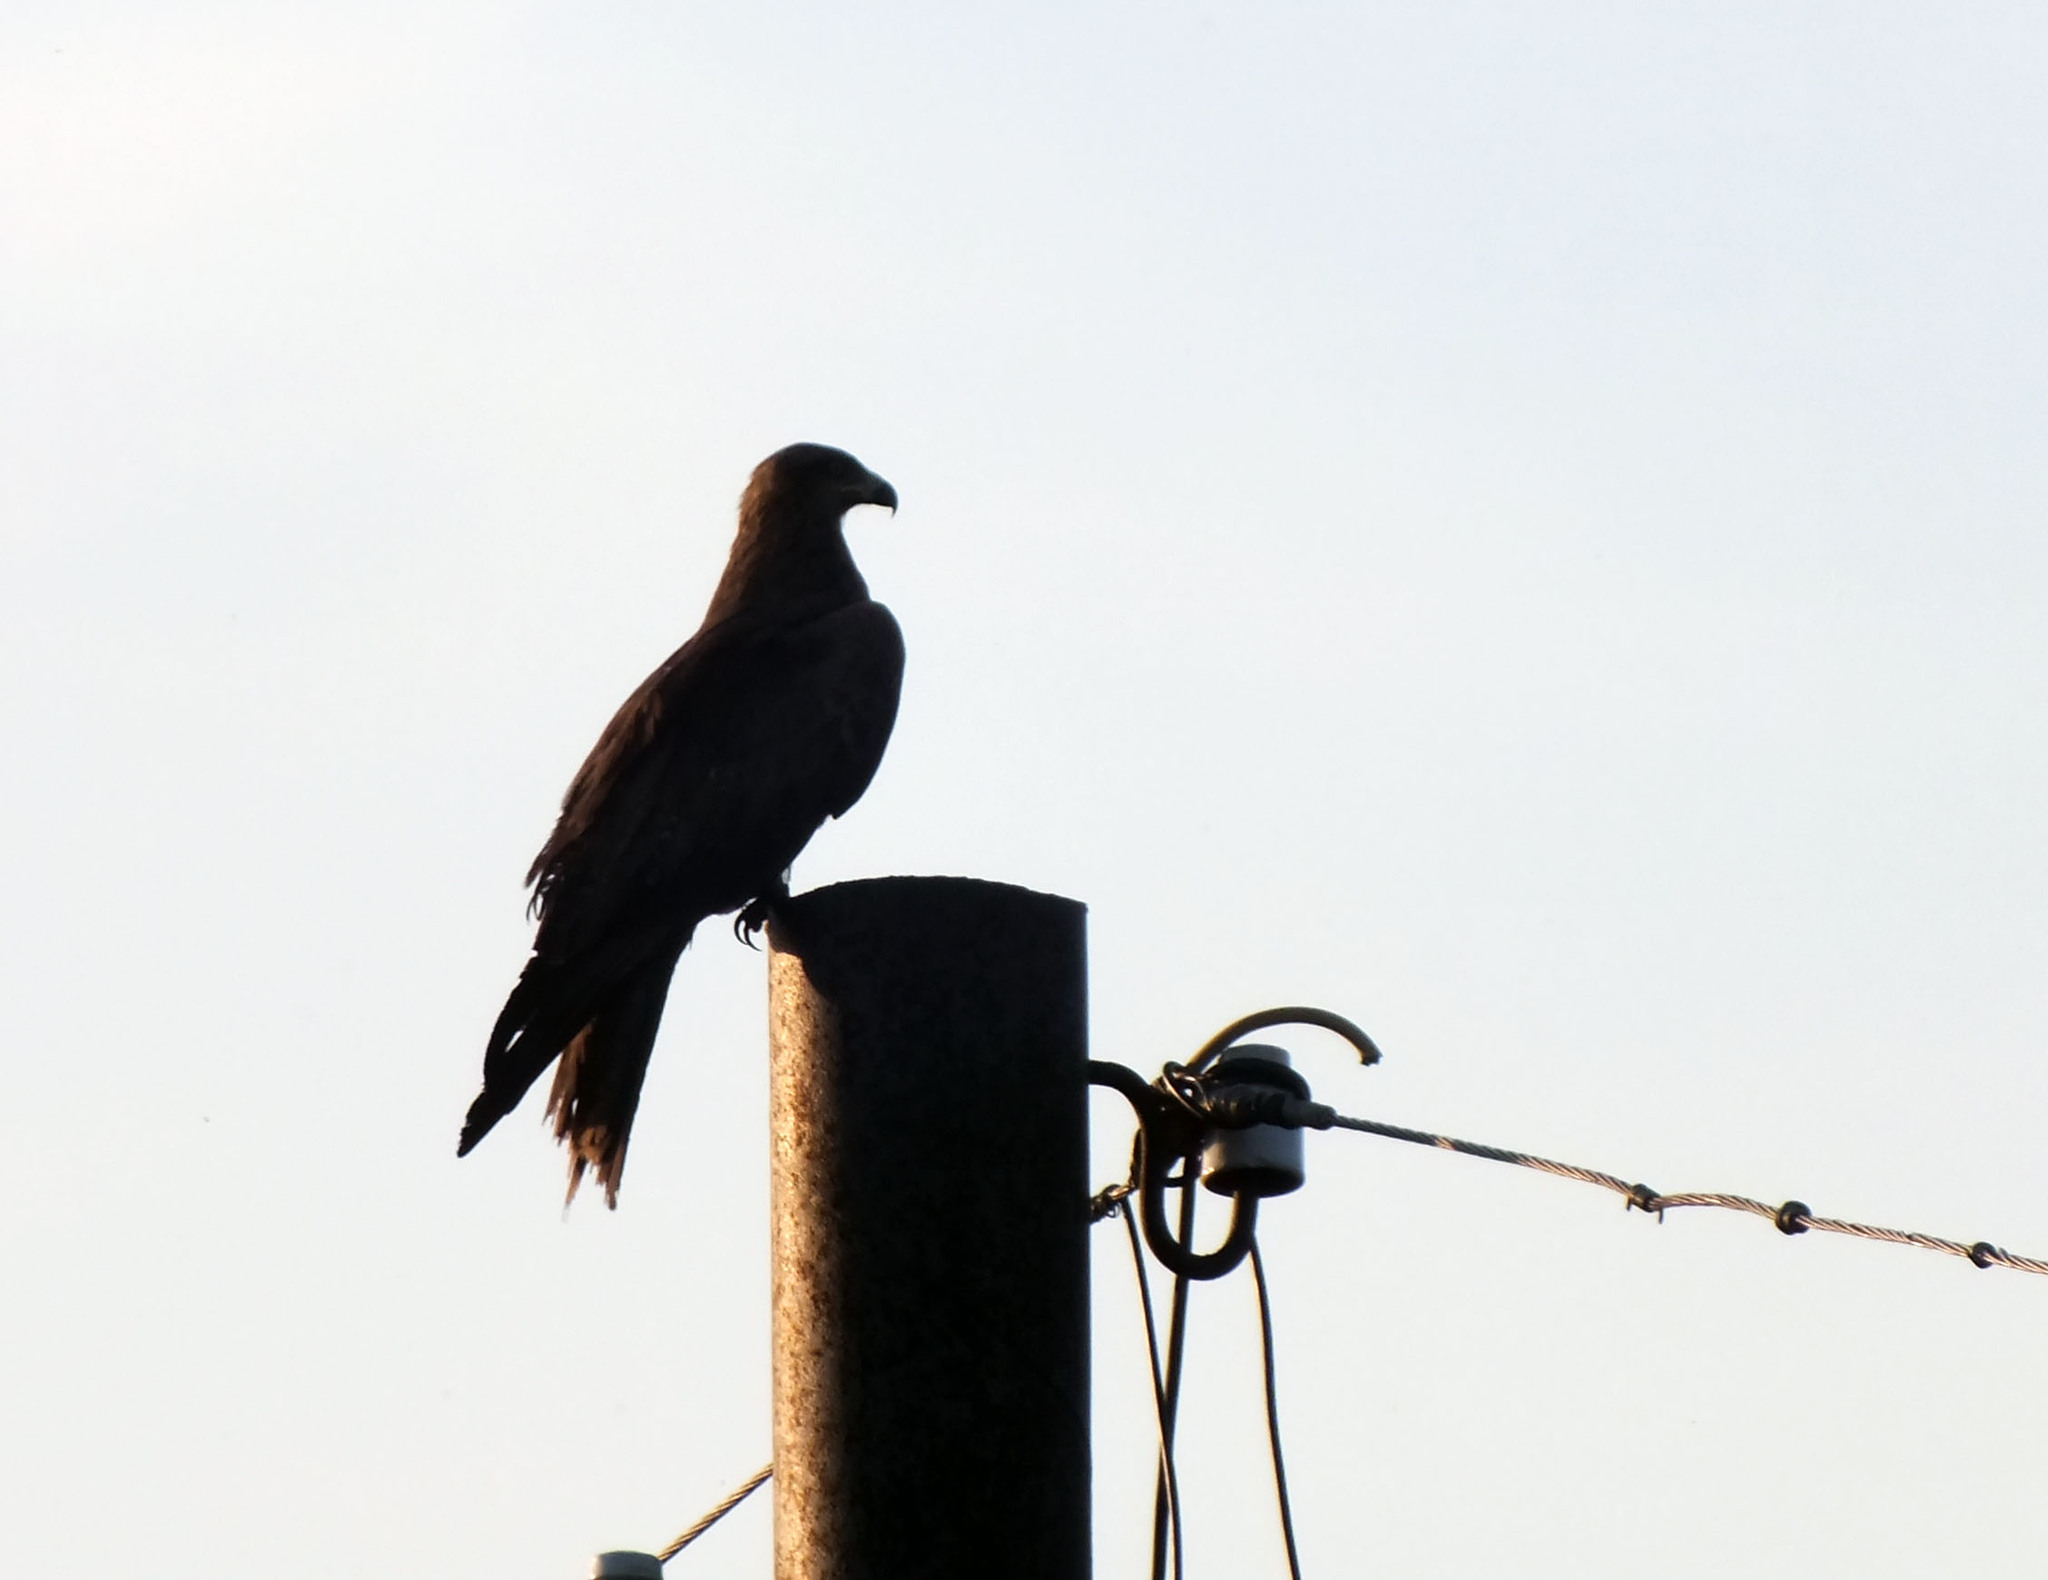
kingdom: Animalia
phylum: Chordata
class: Aves
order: Accipitriformes
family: Accipitridae
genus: Milvus
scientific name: Milvus migrans
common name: Black kite
